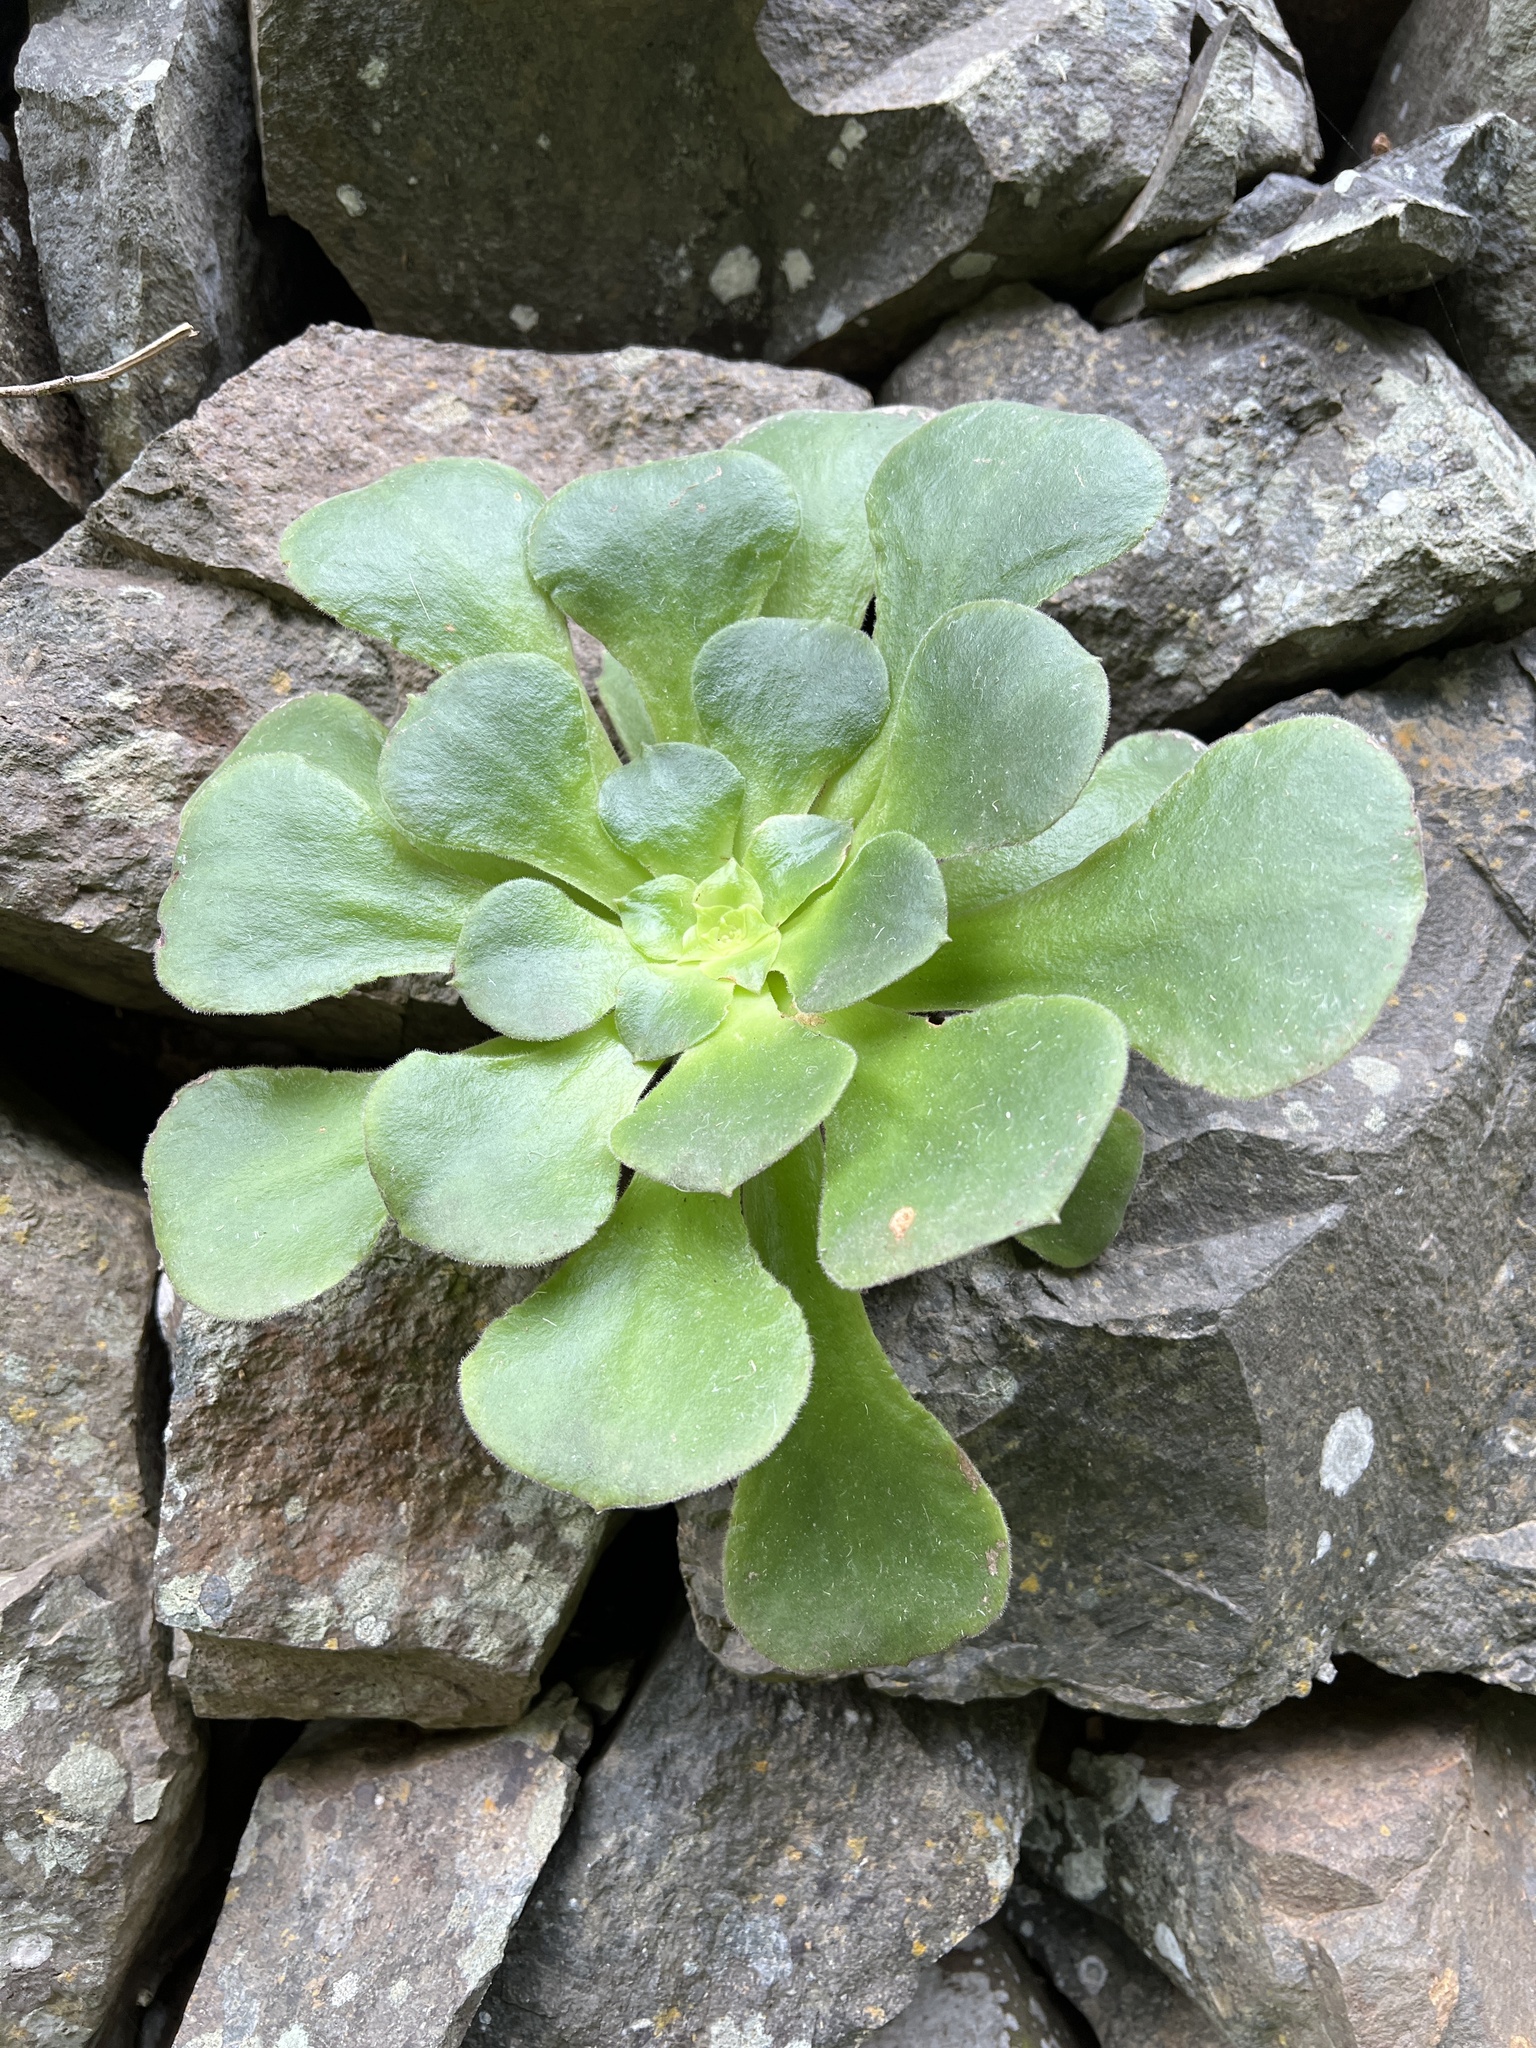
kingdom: Plantae
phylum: Tracheophyta
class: Magnoliopsida
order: Saxifragales
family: Crassulaceae
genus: Aeonium
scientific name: Aeonium canariense
